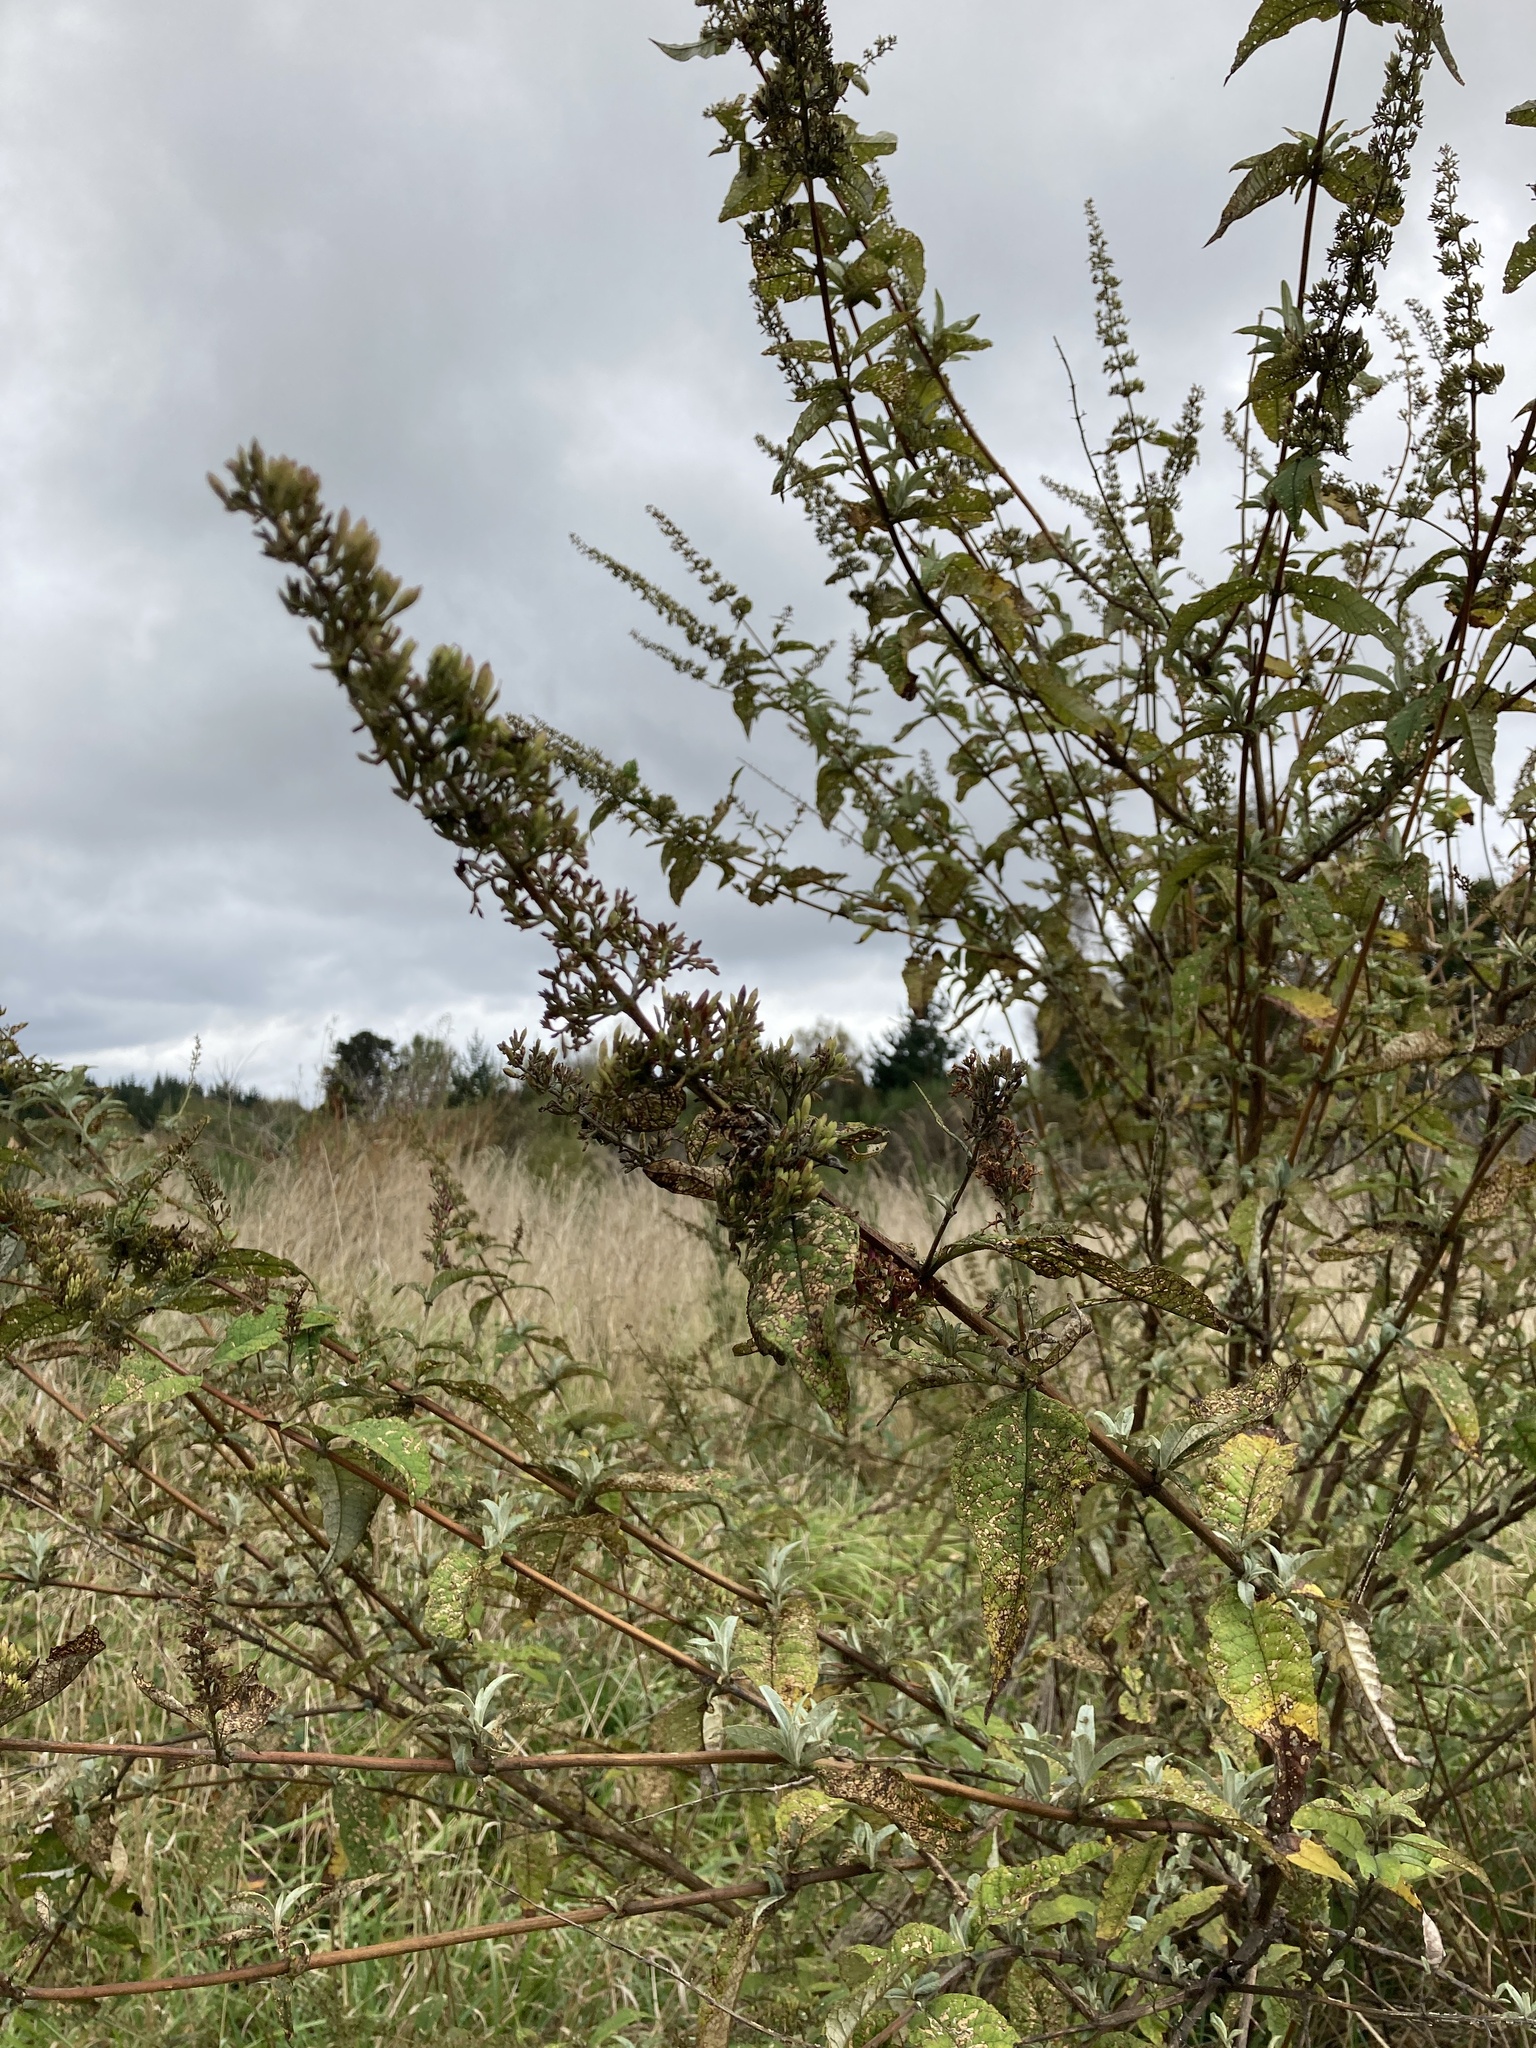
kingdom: Plantae
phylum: Tracheophyta
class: Magnoliopsida
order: Lamiales
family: Scrophulariaceae
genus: Buddleja
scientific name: Buddleja davidii
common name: Butterfly-bush
